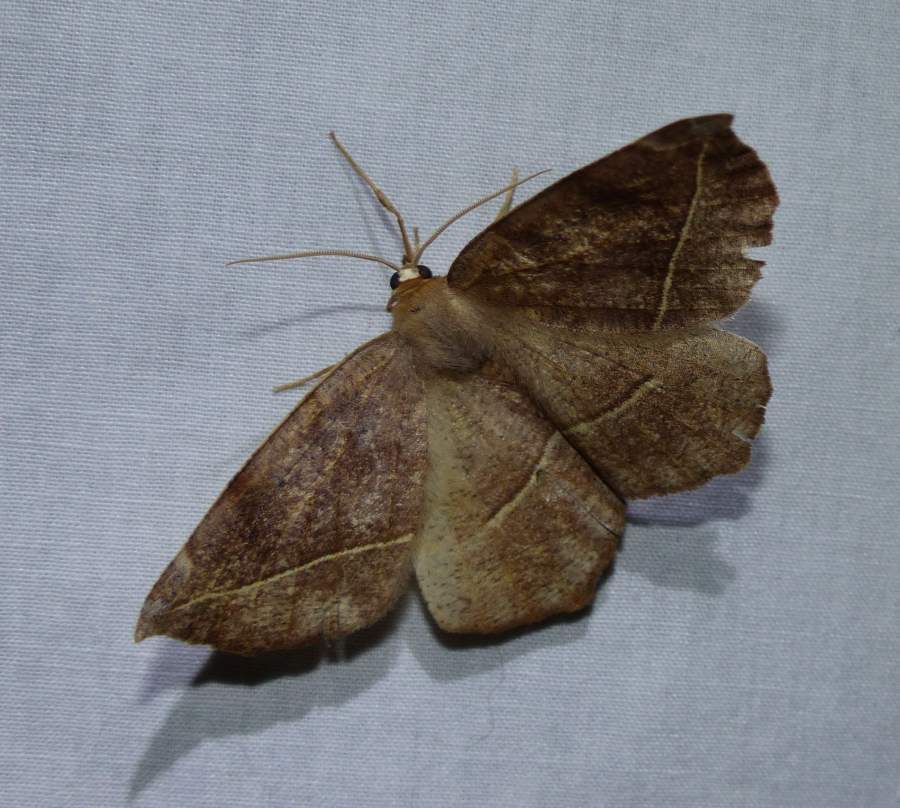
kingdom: Animalia
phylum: Arthropoda
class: Insecta
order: Lepidoptera
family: Geometridae
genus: Eutrapela
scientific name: Eutrapela clemataria
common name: Curved-toothed geometer
